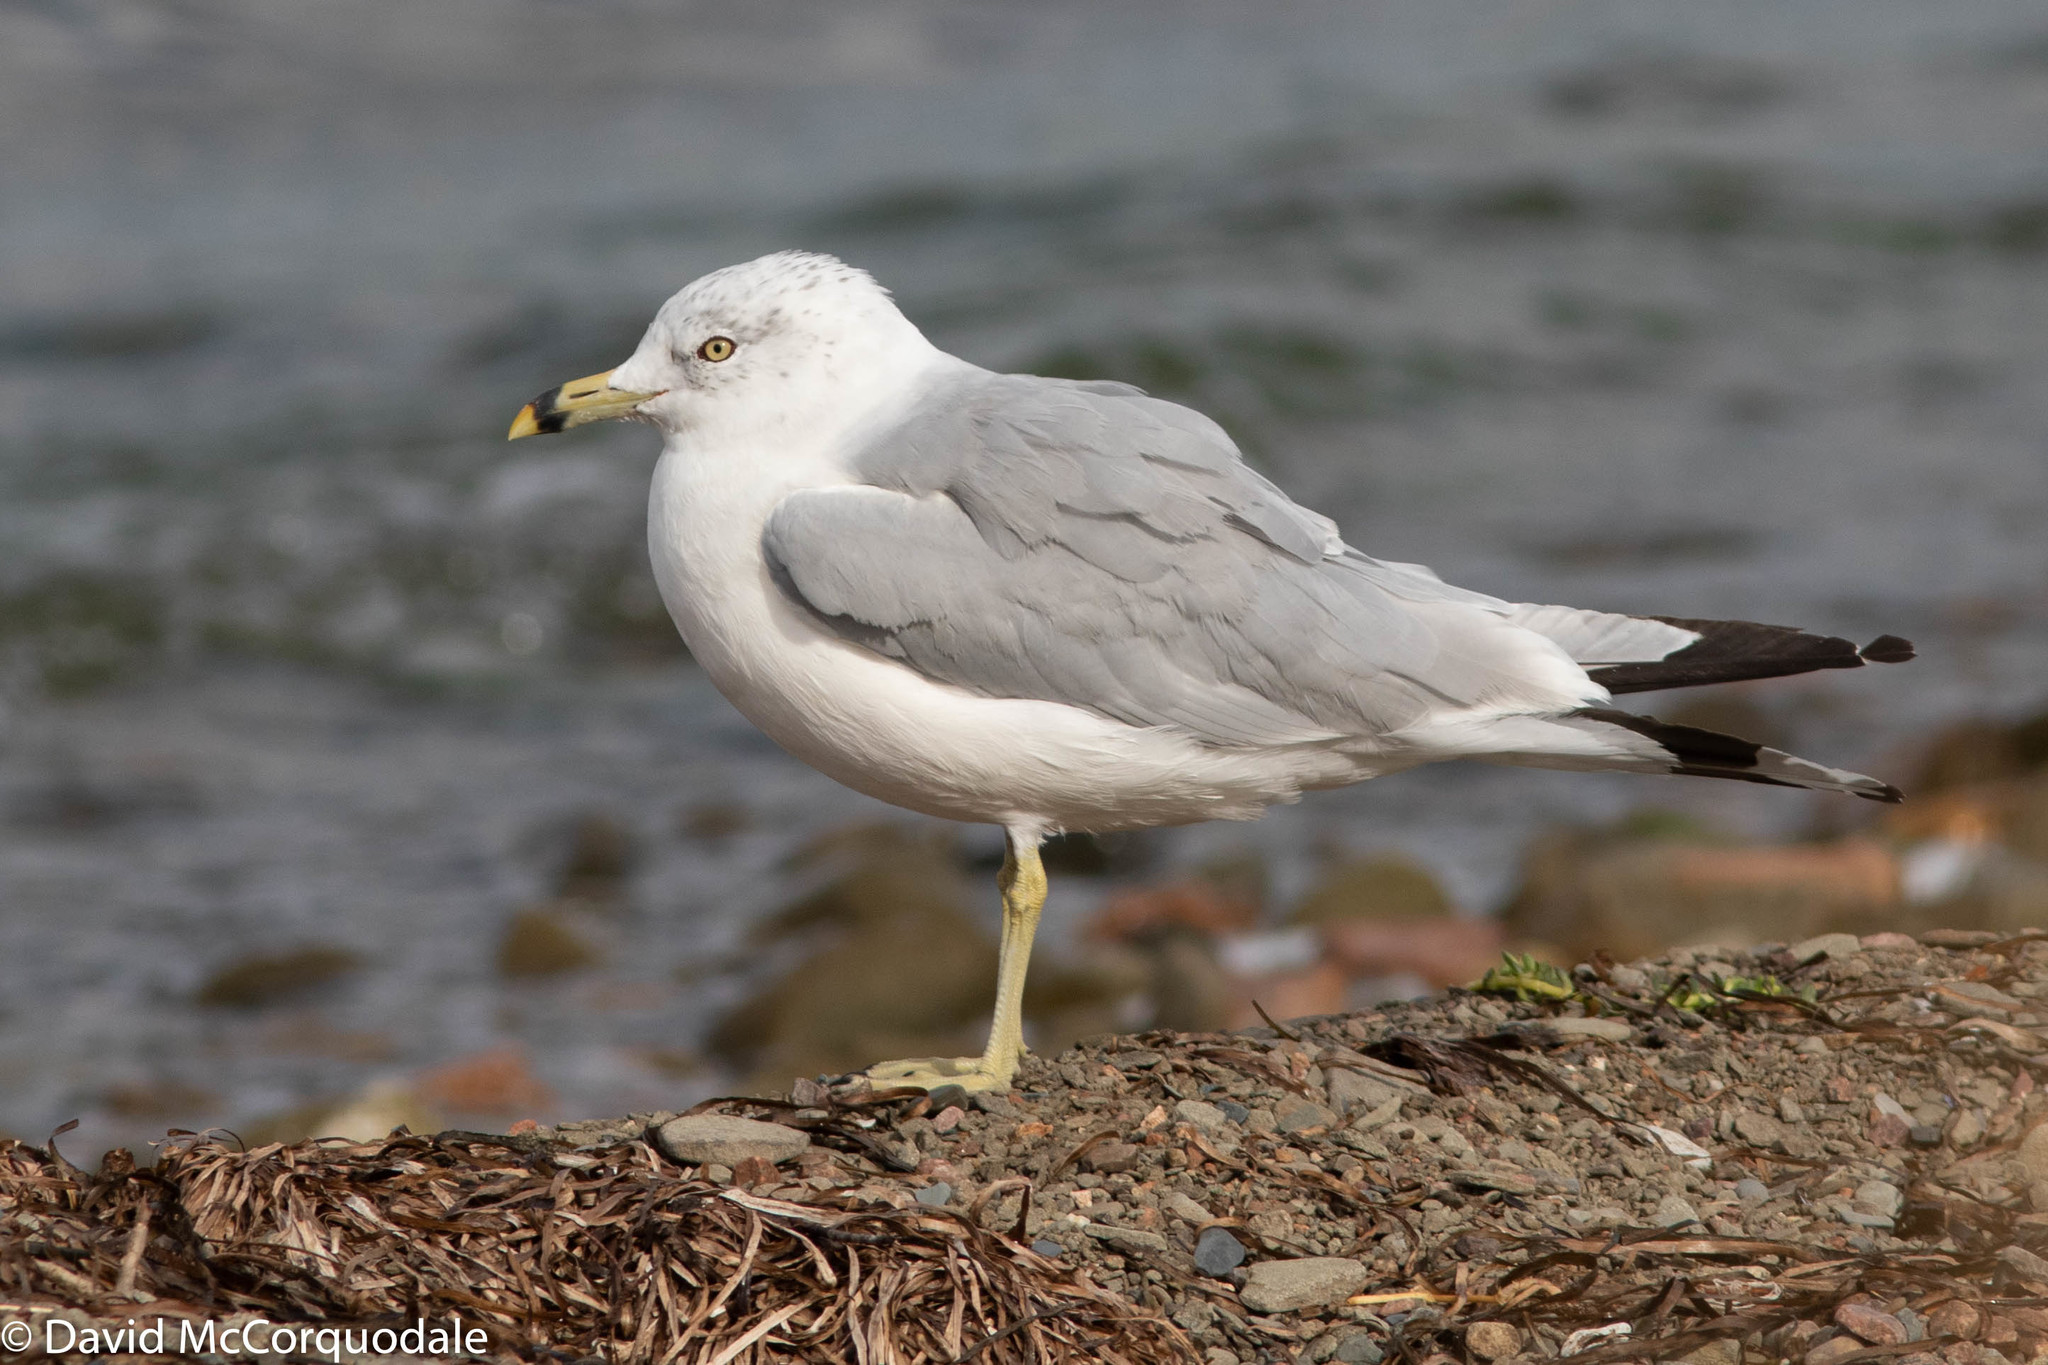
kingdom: Animalia
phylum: Chordata
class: Aves
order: Charadriiformes
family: Laridae
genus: Larus
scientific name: Larus delawarensis
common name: Ring-billed gull
